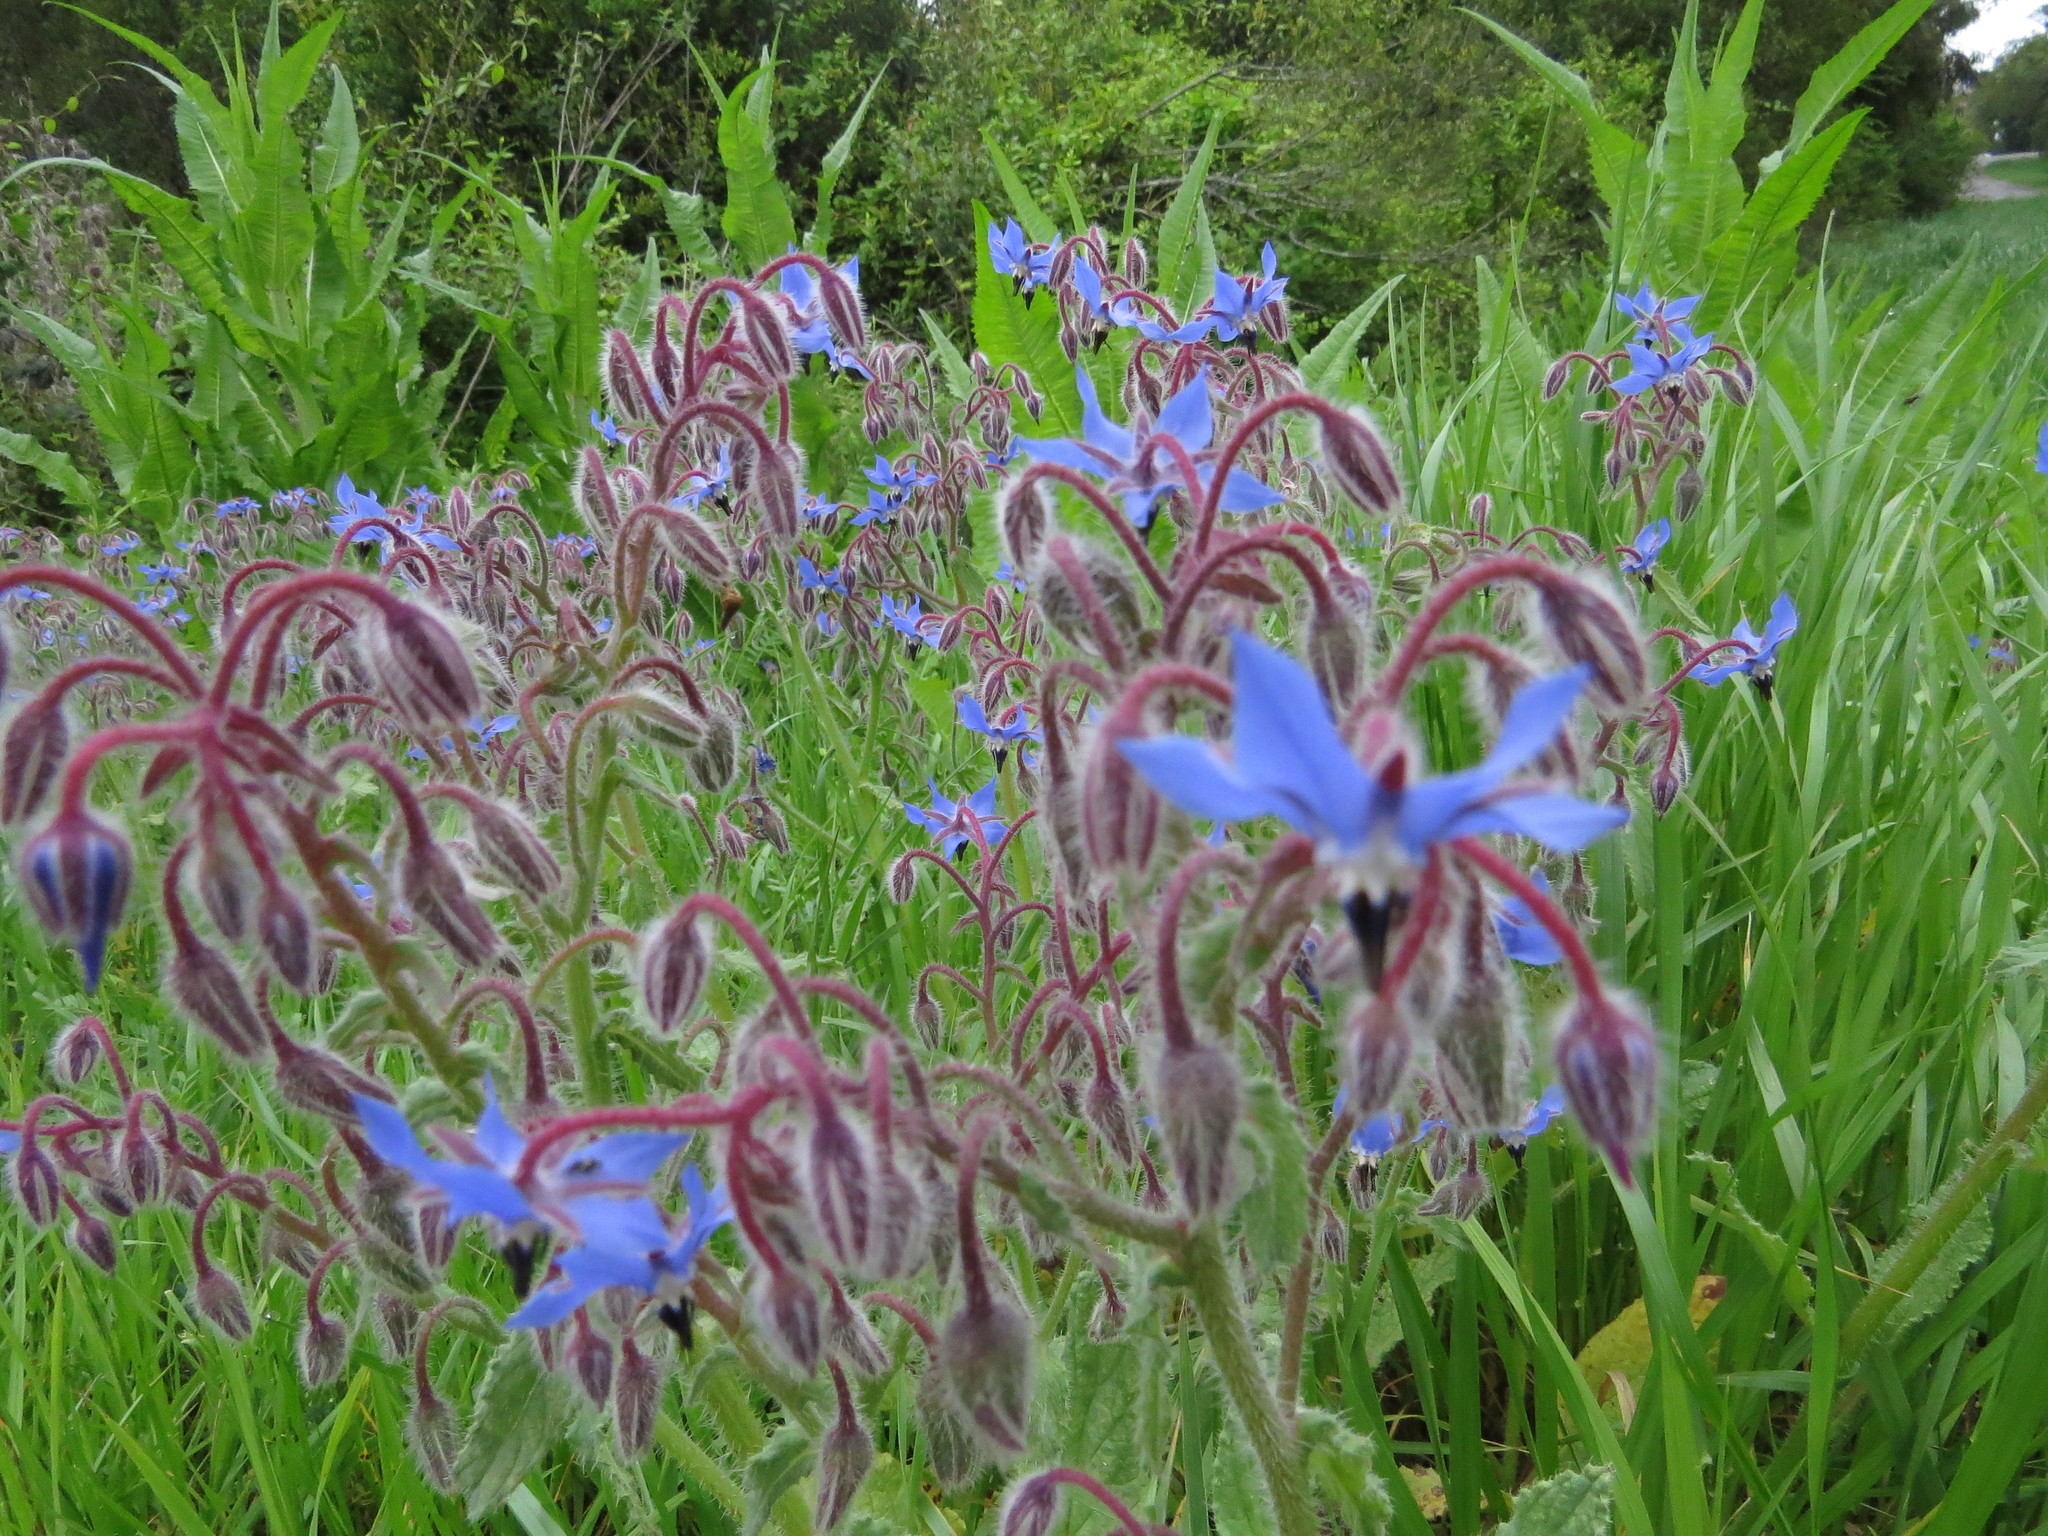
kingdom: Plantae
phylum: Tracheophyta
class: Magnoliopsida
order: Boraginales
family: Boraginaceae
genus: Borago
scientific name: Borago officinalis
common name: Borage
